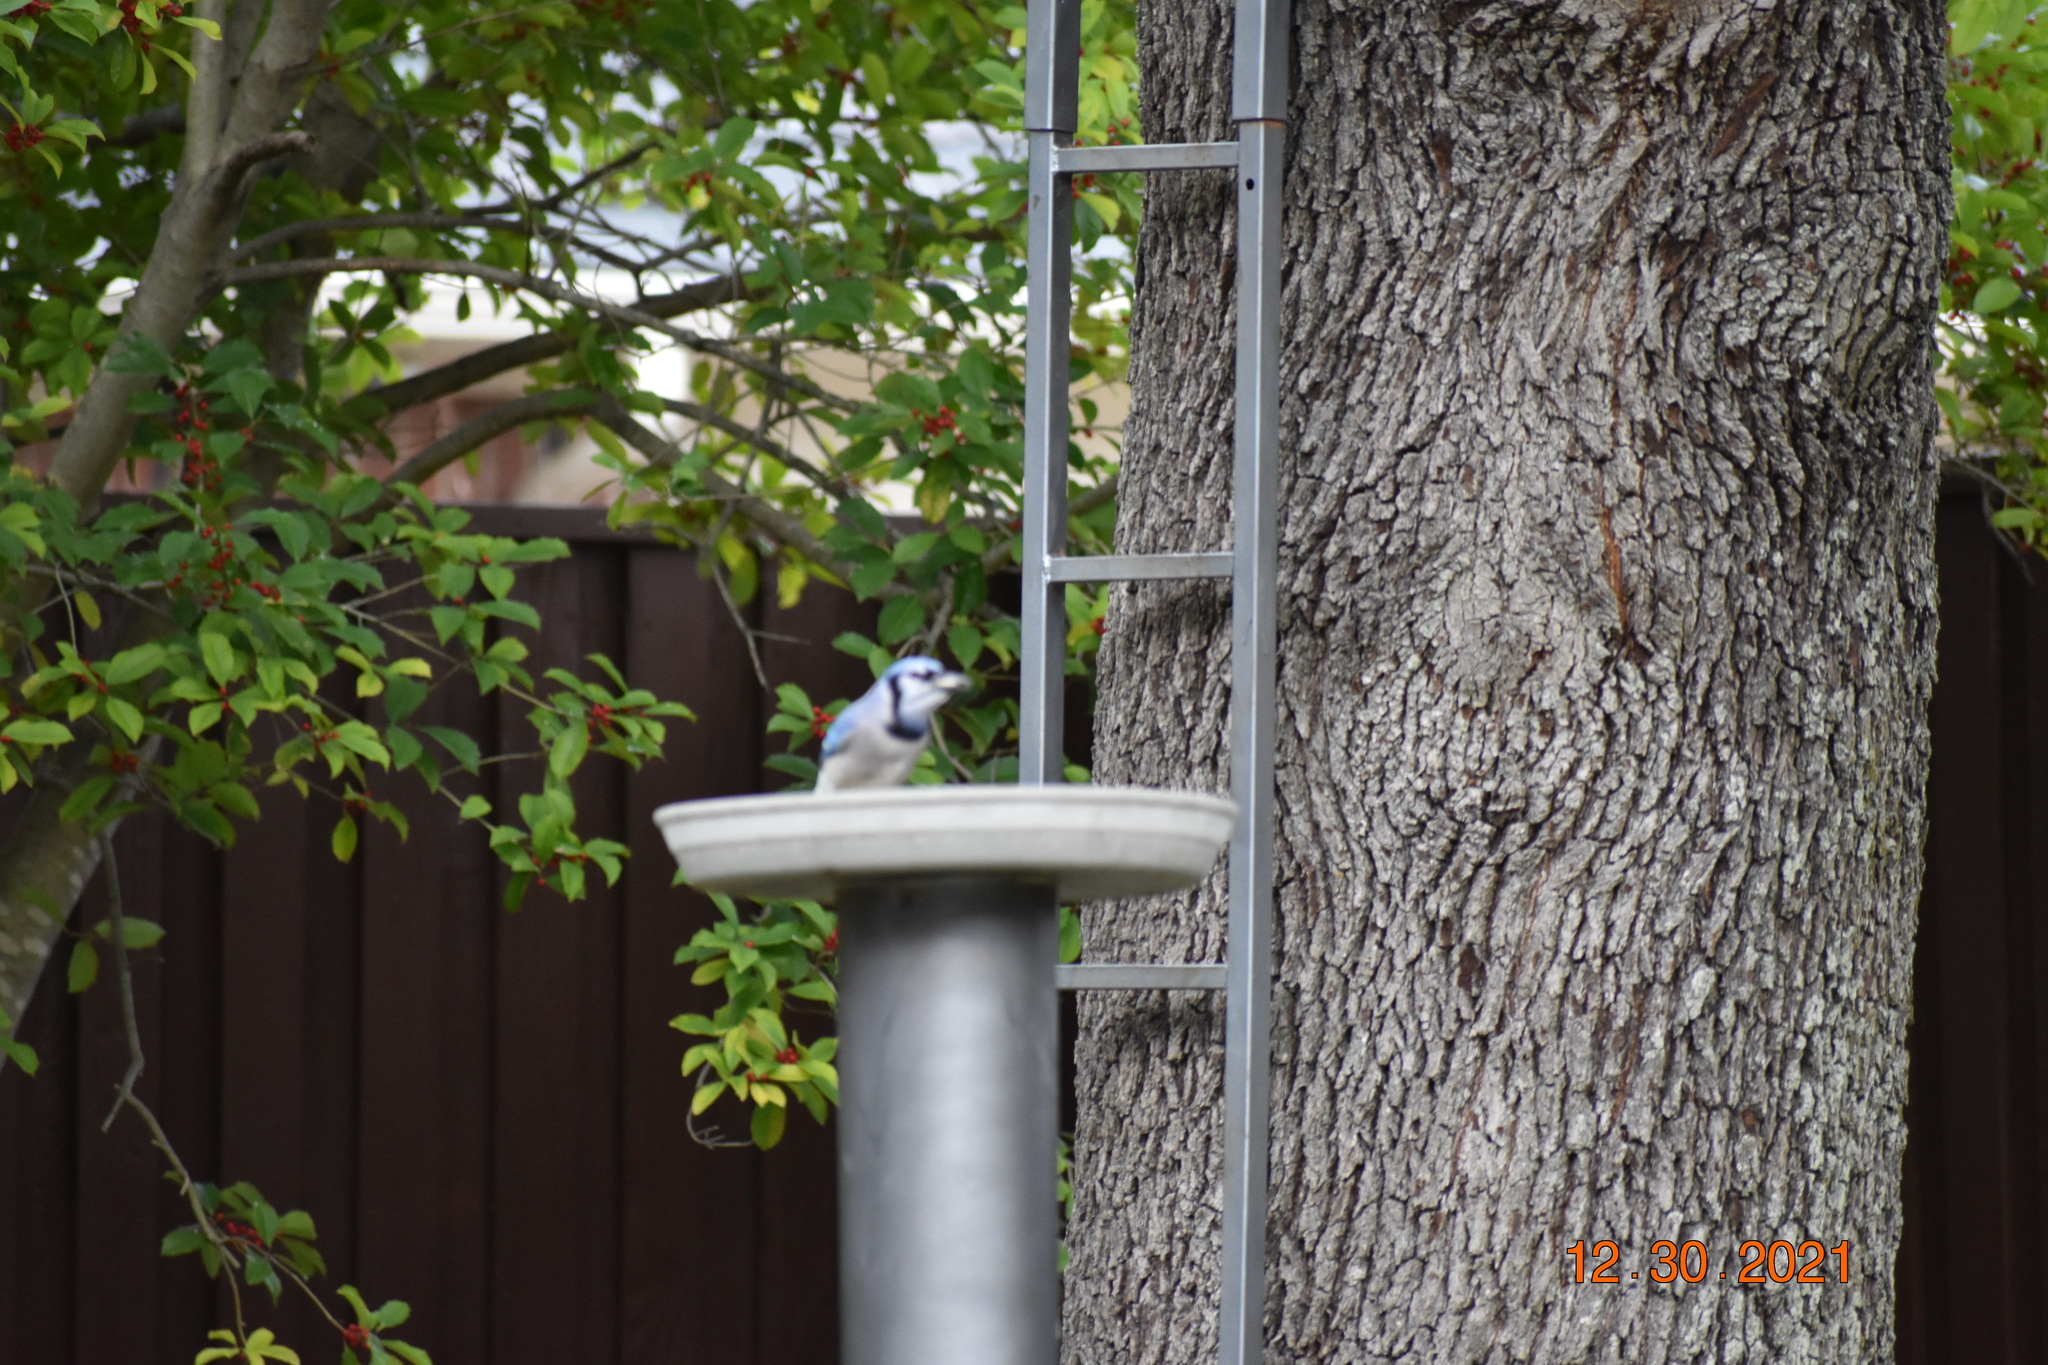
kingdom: Animalia
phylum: Chordata
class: Aves
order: Passeriformes
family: Corvidae
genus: Cyanocitta
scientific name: Cyanocitta cristata
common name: Blue jay
